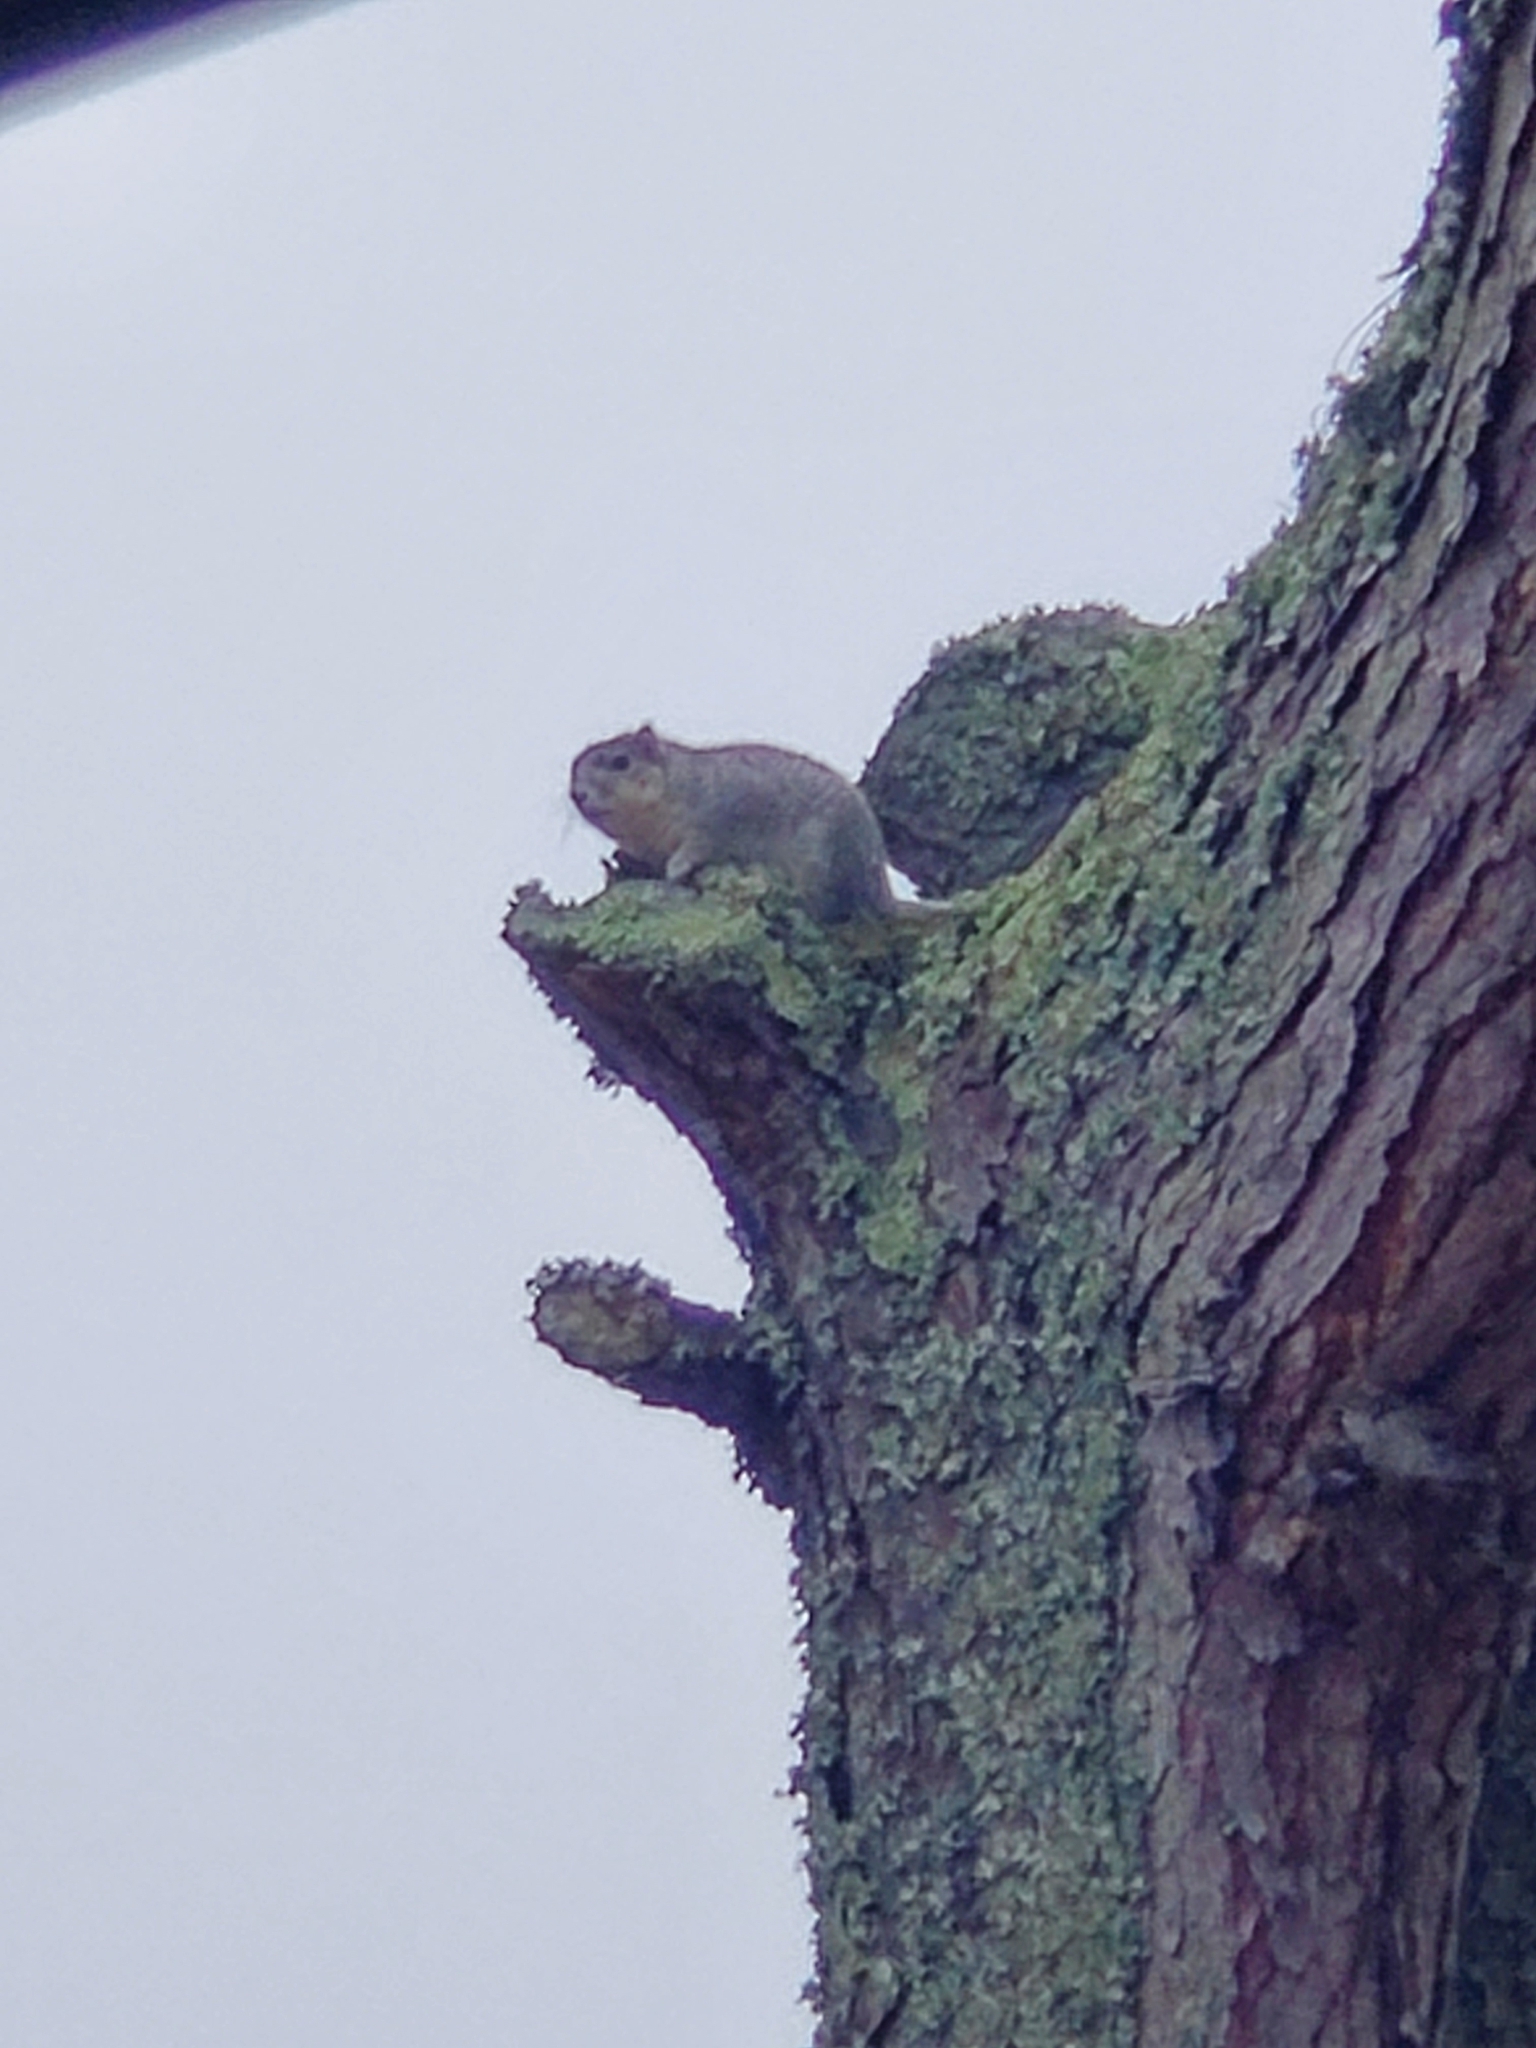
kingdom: Animalia
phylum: Chordata
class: Mammalia
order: Rodentia
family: Sciuridae
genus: Sciurus
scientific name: Sciurus niger
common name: Fox squirrel
